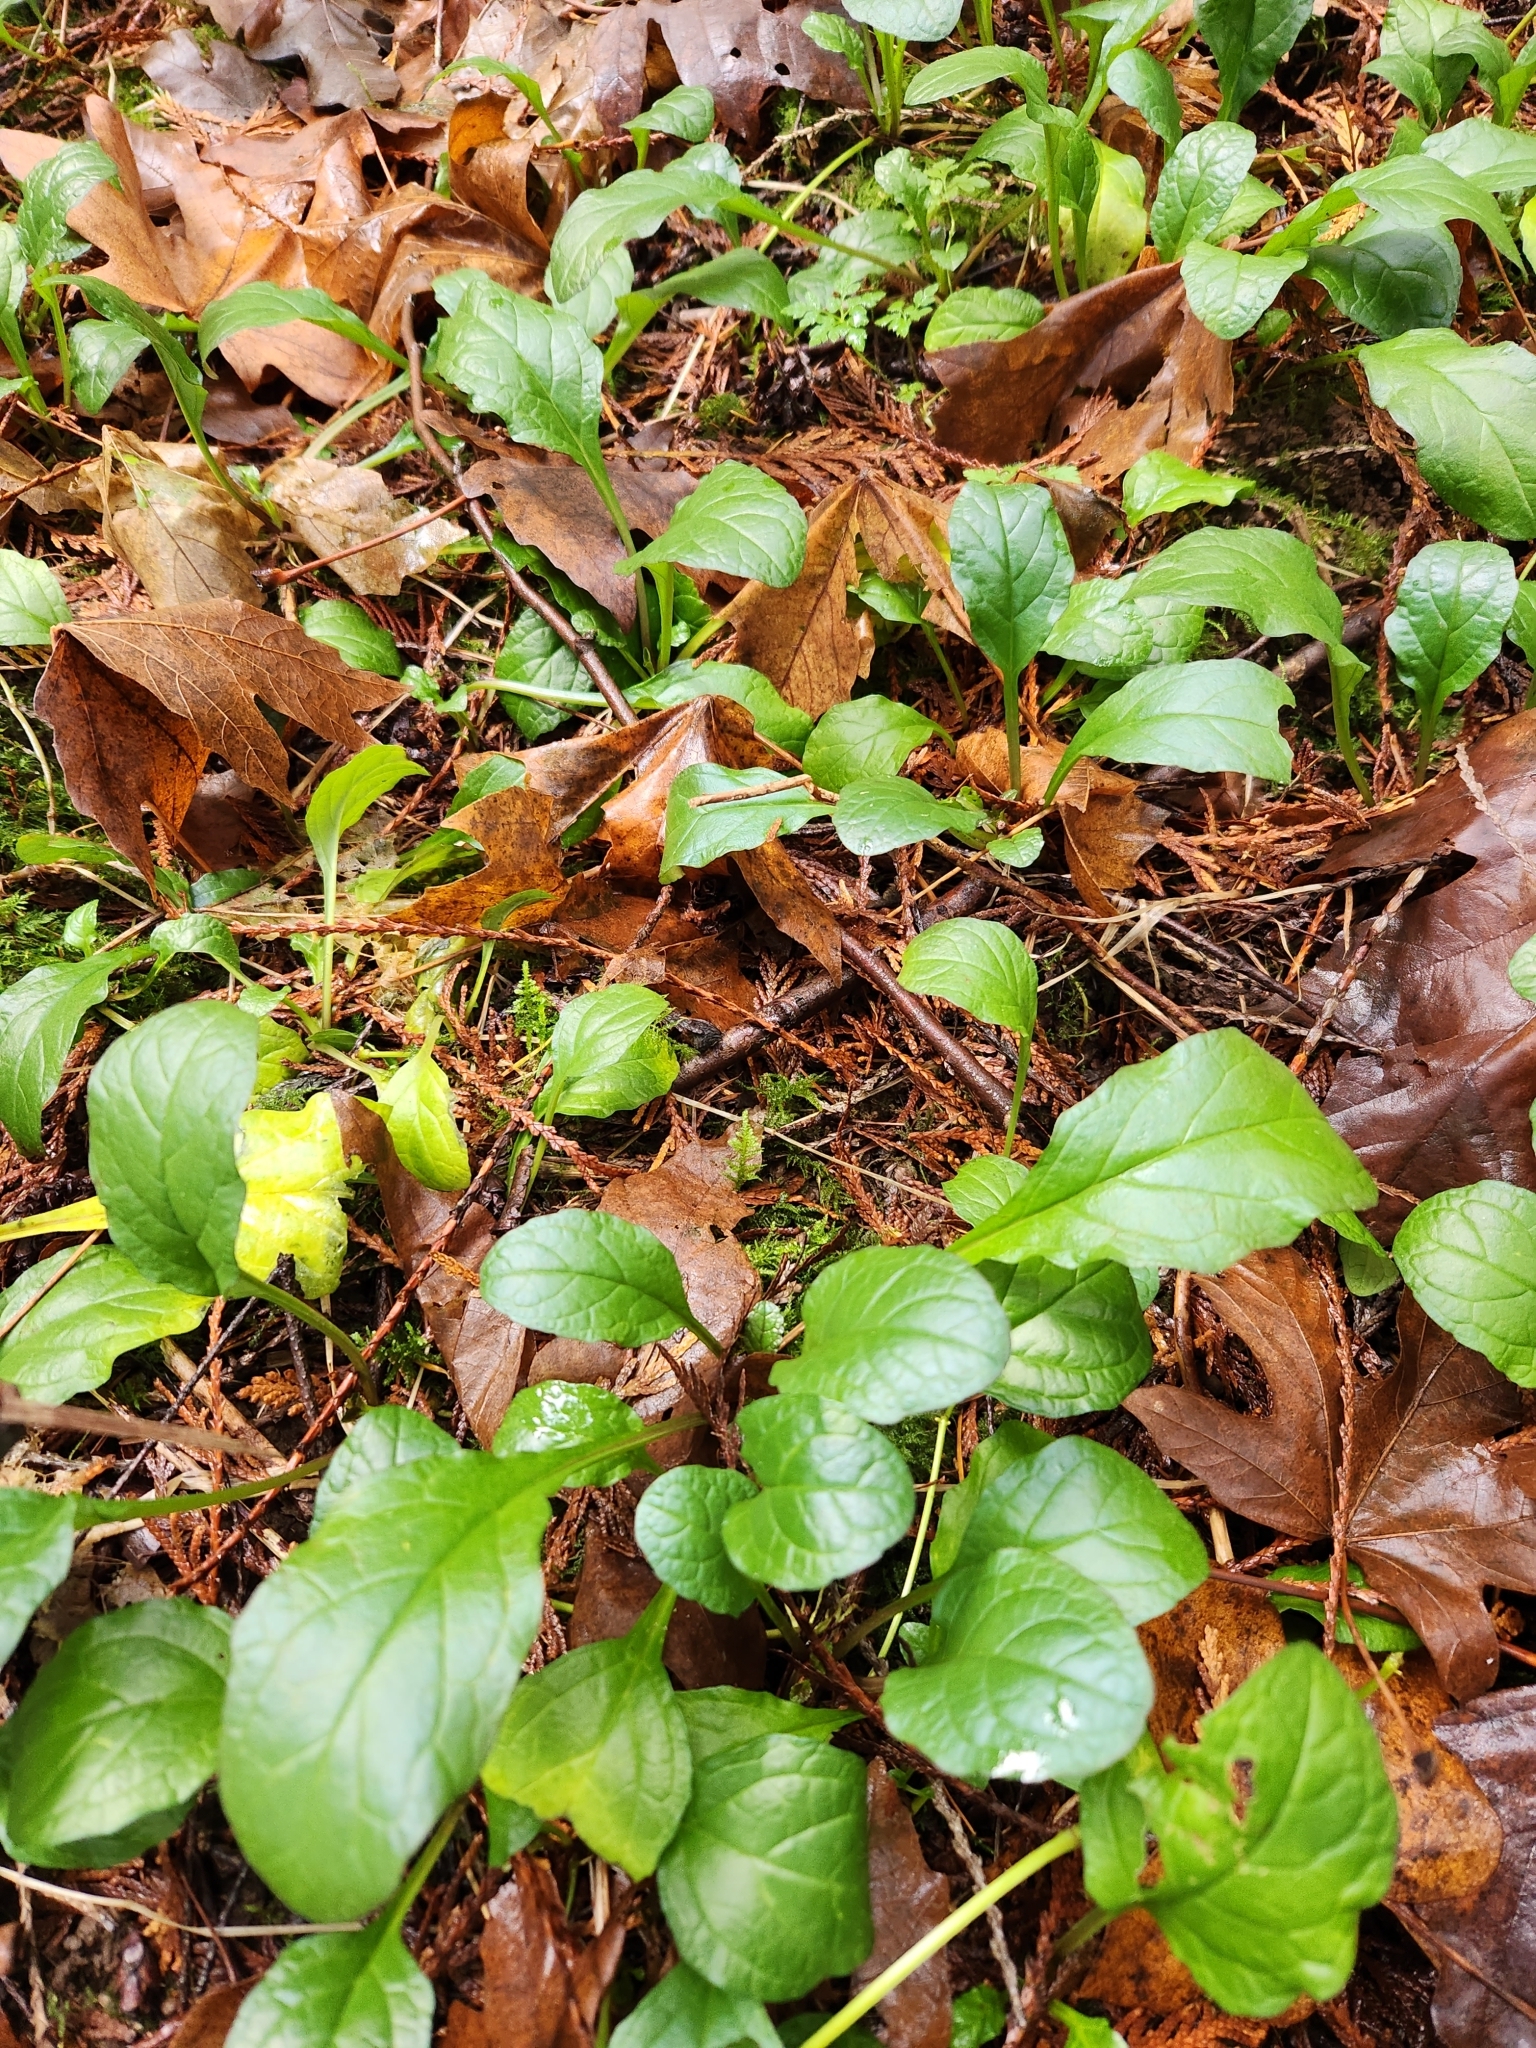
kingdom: Plantae
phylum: Tracheophyta
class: Magnoliopsida
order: Lamiales
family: Lamiaceae
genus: Ajuga
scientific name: Ajuga reptans
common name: Bugle
